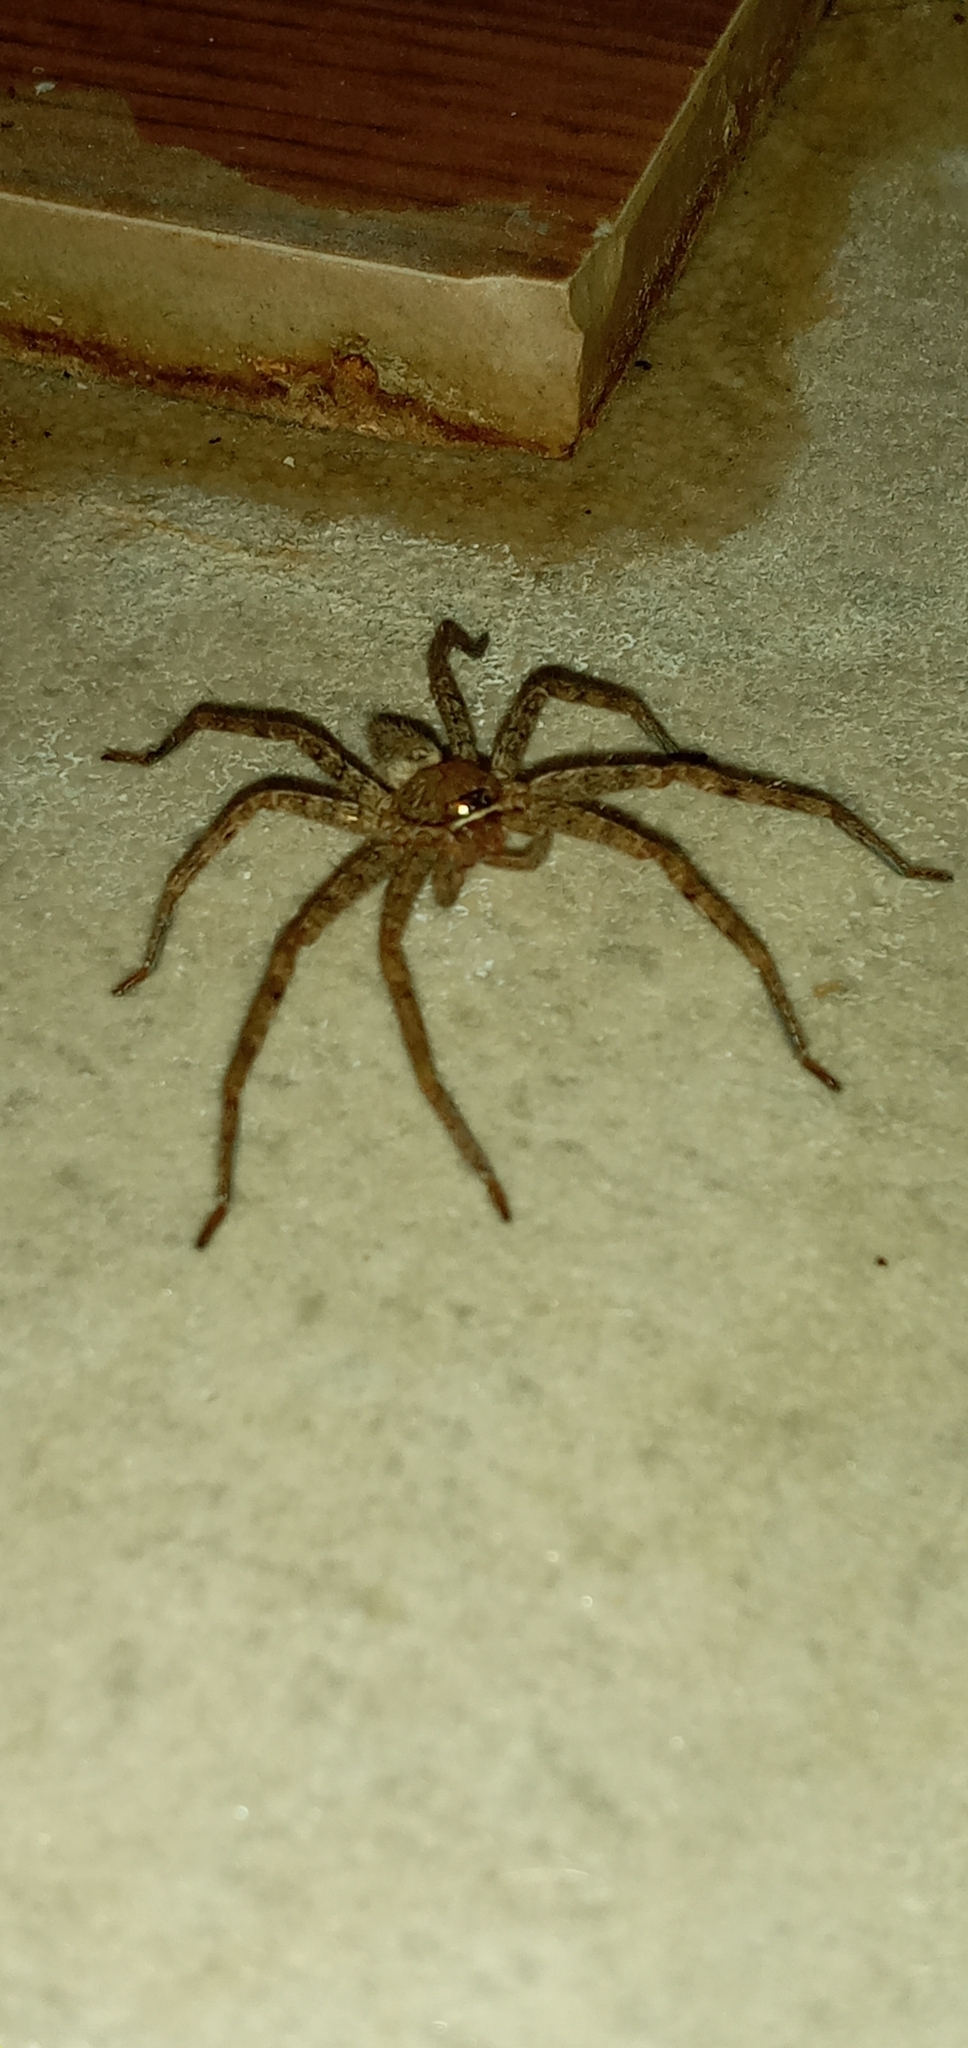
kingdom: Animalia
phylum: Arthropoda
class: Arachnida
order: Araneae
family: Sparassidae
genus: Heteropoda
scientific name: Heteropoda venatoria
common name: Huntsman spider
